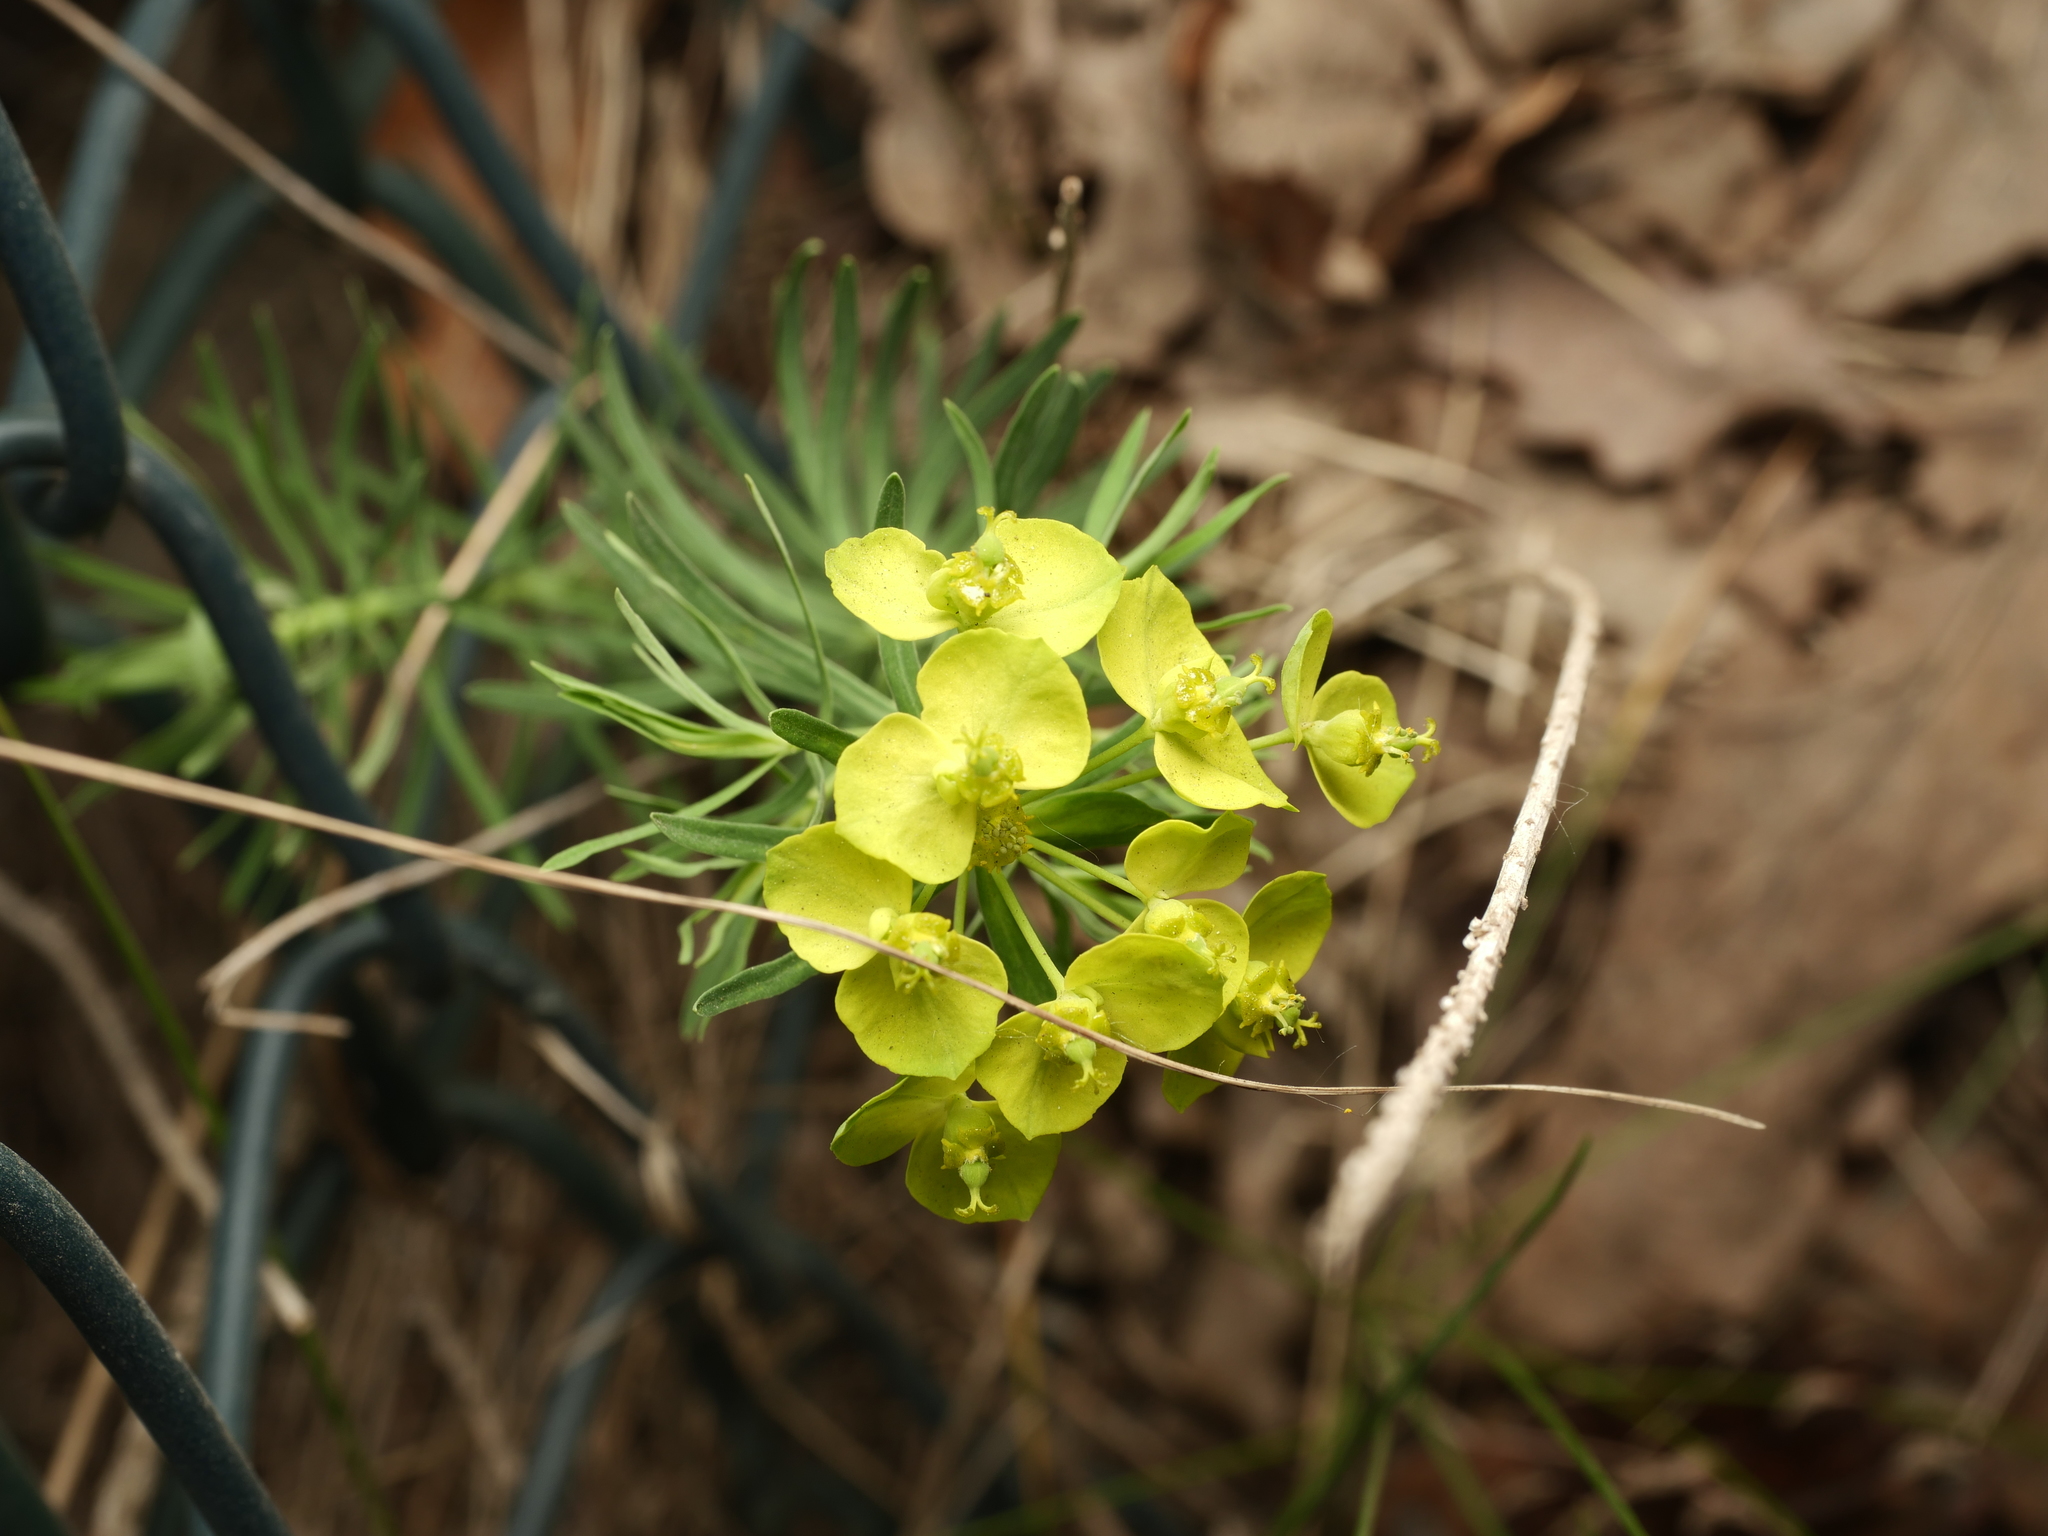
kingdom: Plantae
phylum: Tracheophyta
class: Magnoliopsida
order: Malpighiales
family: Euphorbiaceae
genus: Euphorbia
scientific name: Euphorbia cyparissias
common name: Cypress spurge
